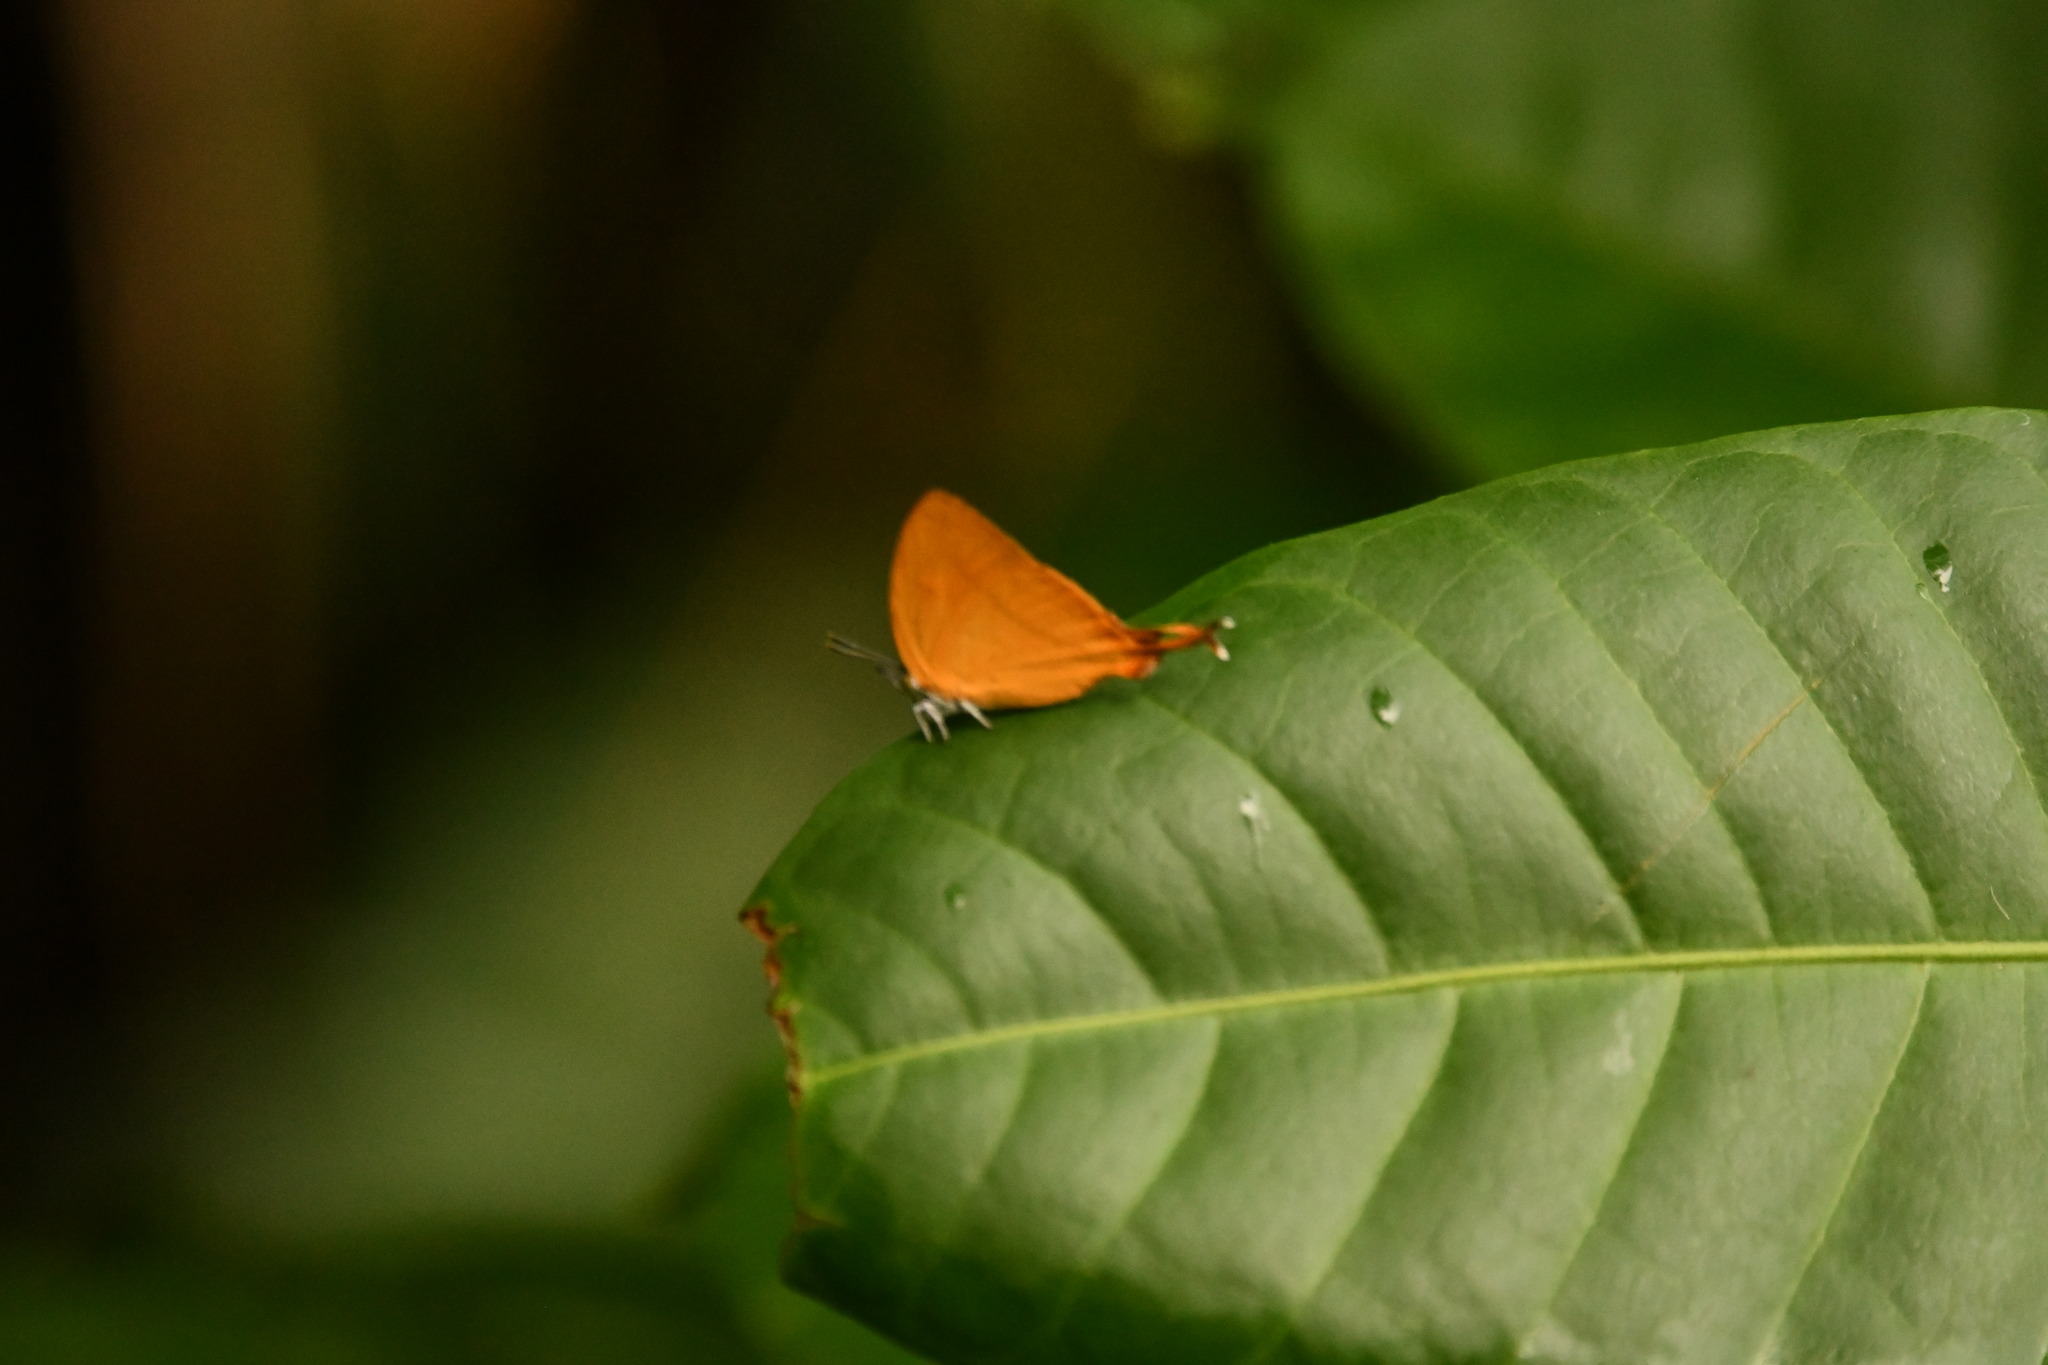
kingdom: Animalia
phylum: Arthropoda
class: Insecta
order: Lepidoptera
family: Lycaenidae
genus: Loxura
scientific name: Loxura atymnus
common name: Common yamfly
